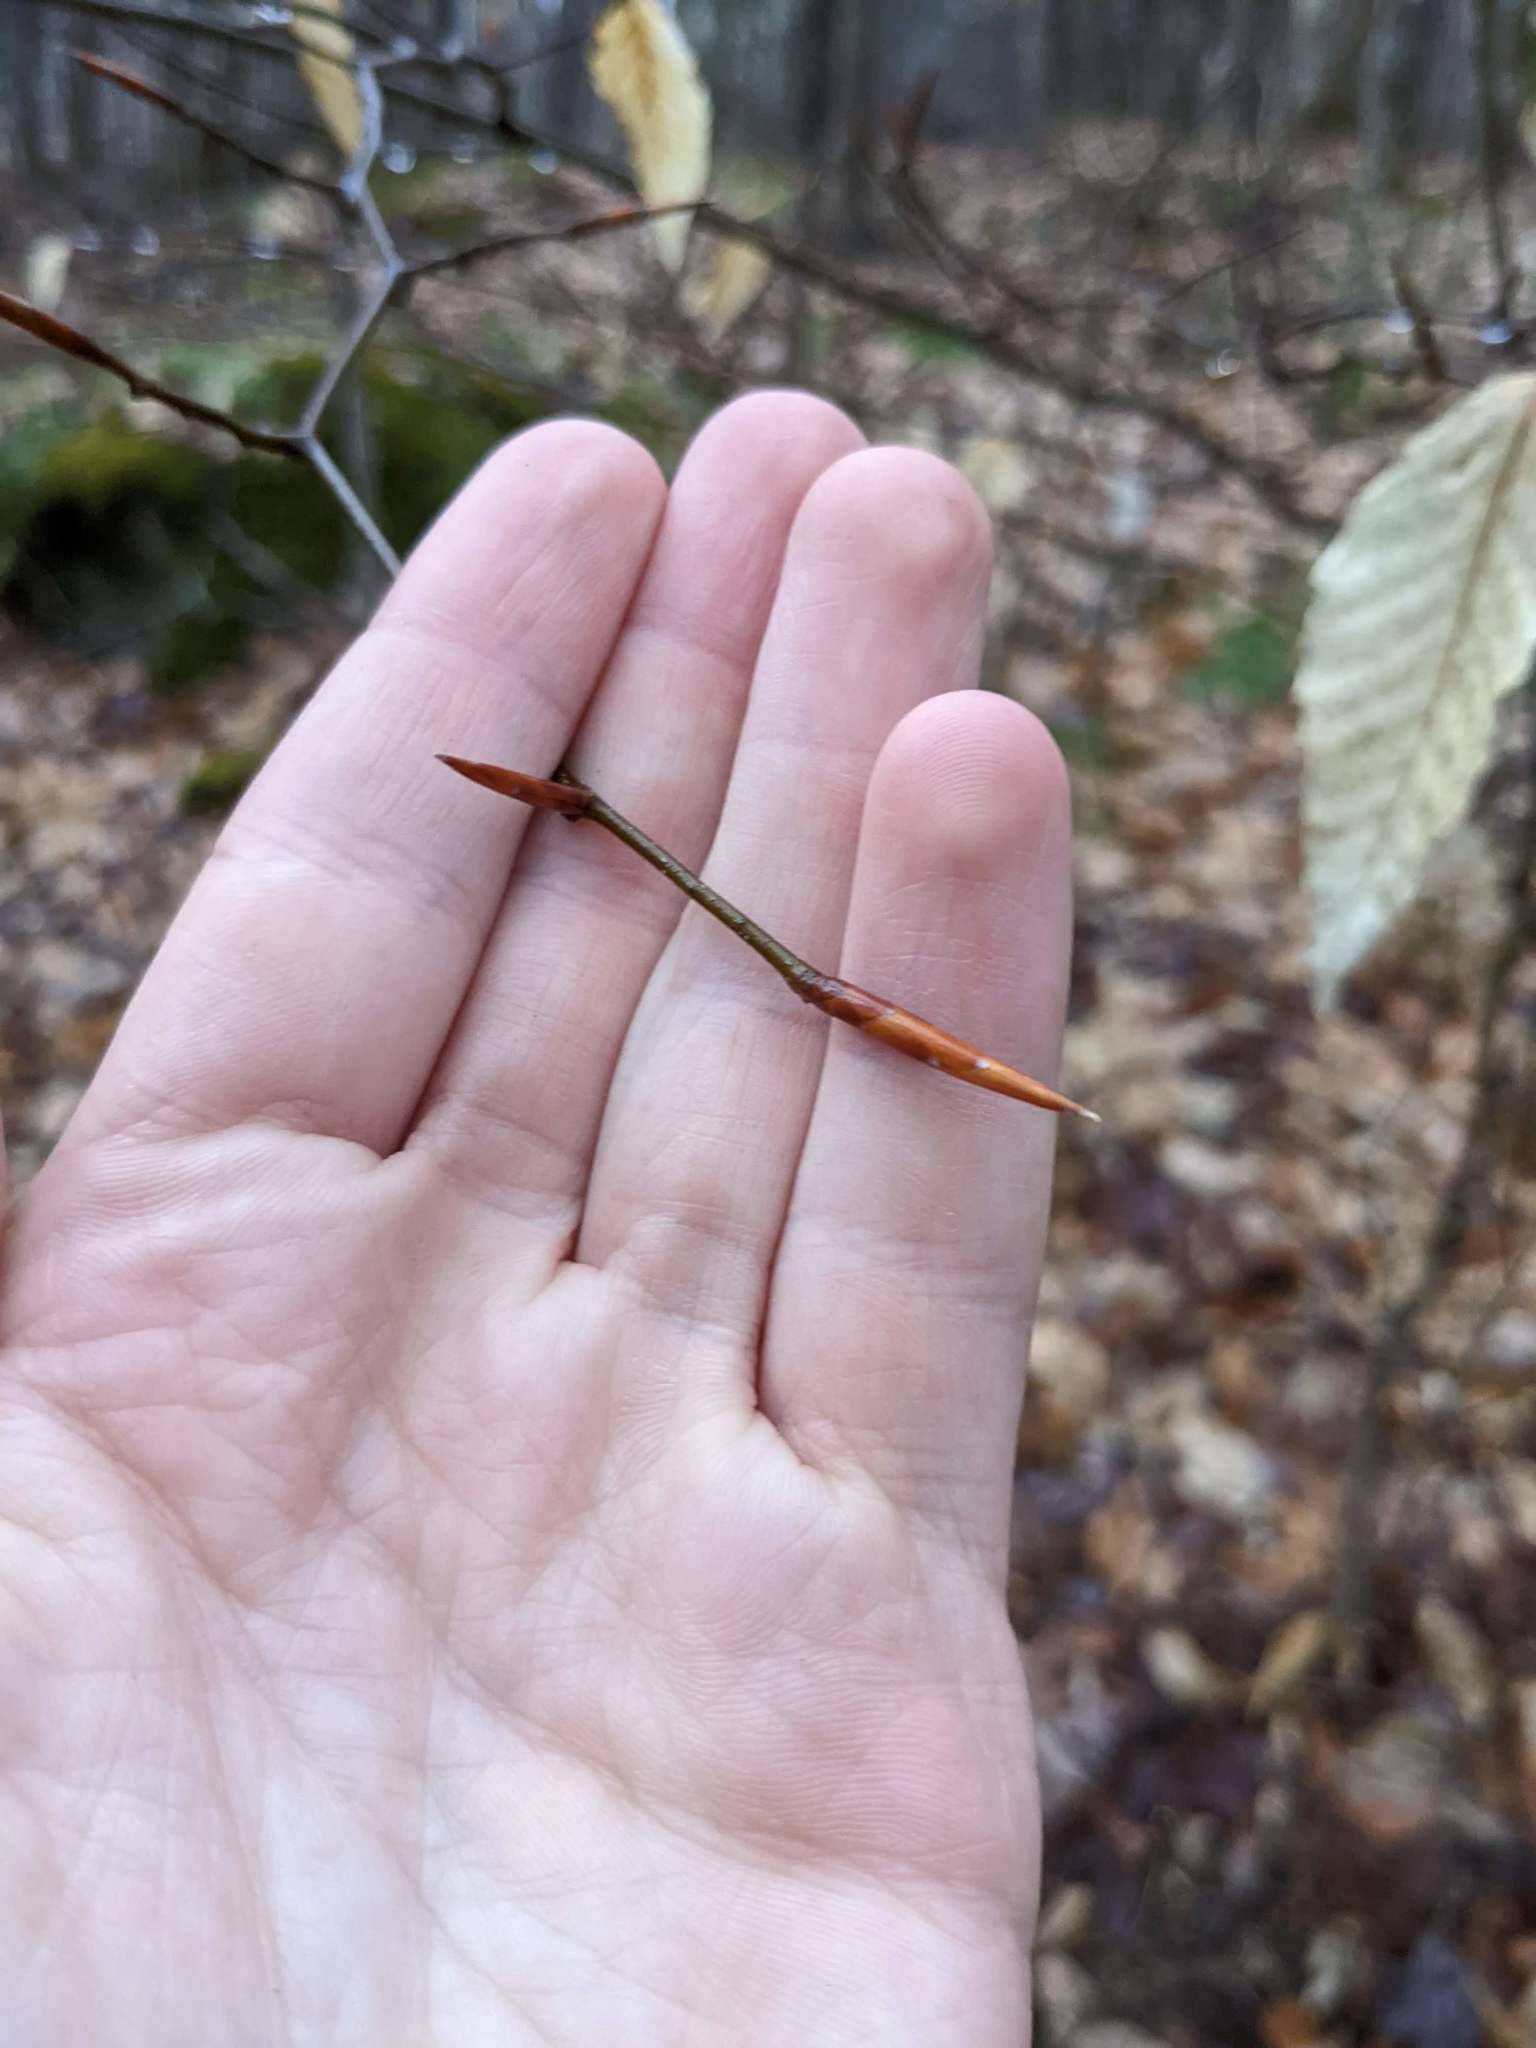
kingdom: Plantae
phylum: Tracheophyta
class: Magnoliopsida
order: Fagales
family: Fagaceae
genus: Fagus
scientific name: Fagus grandifolia
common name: American beech
